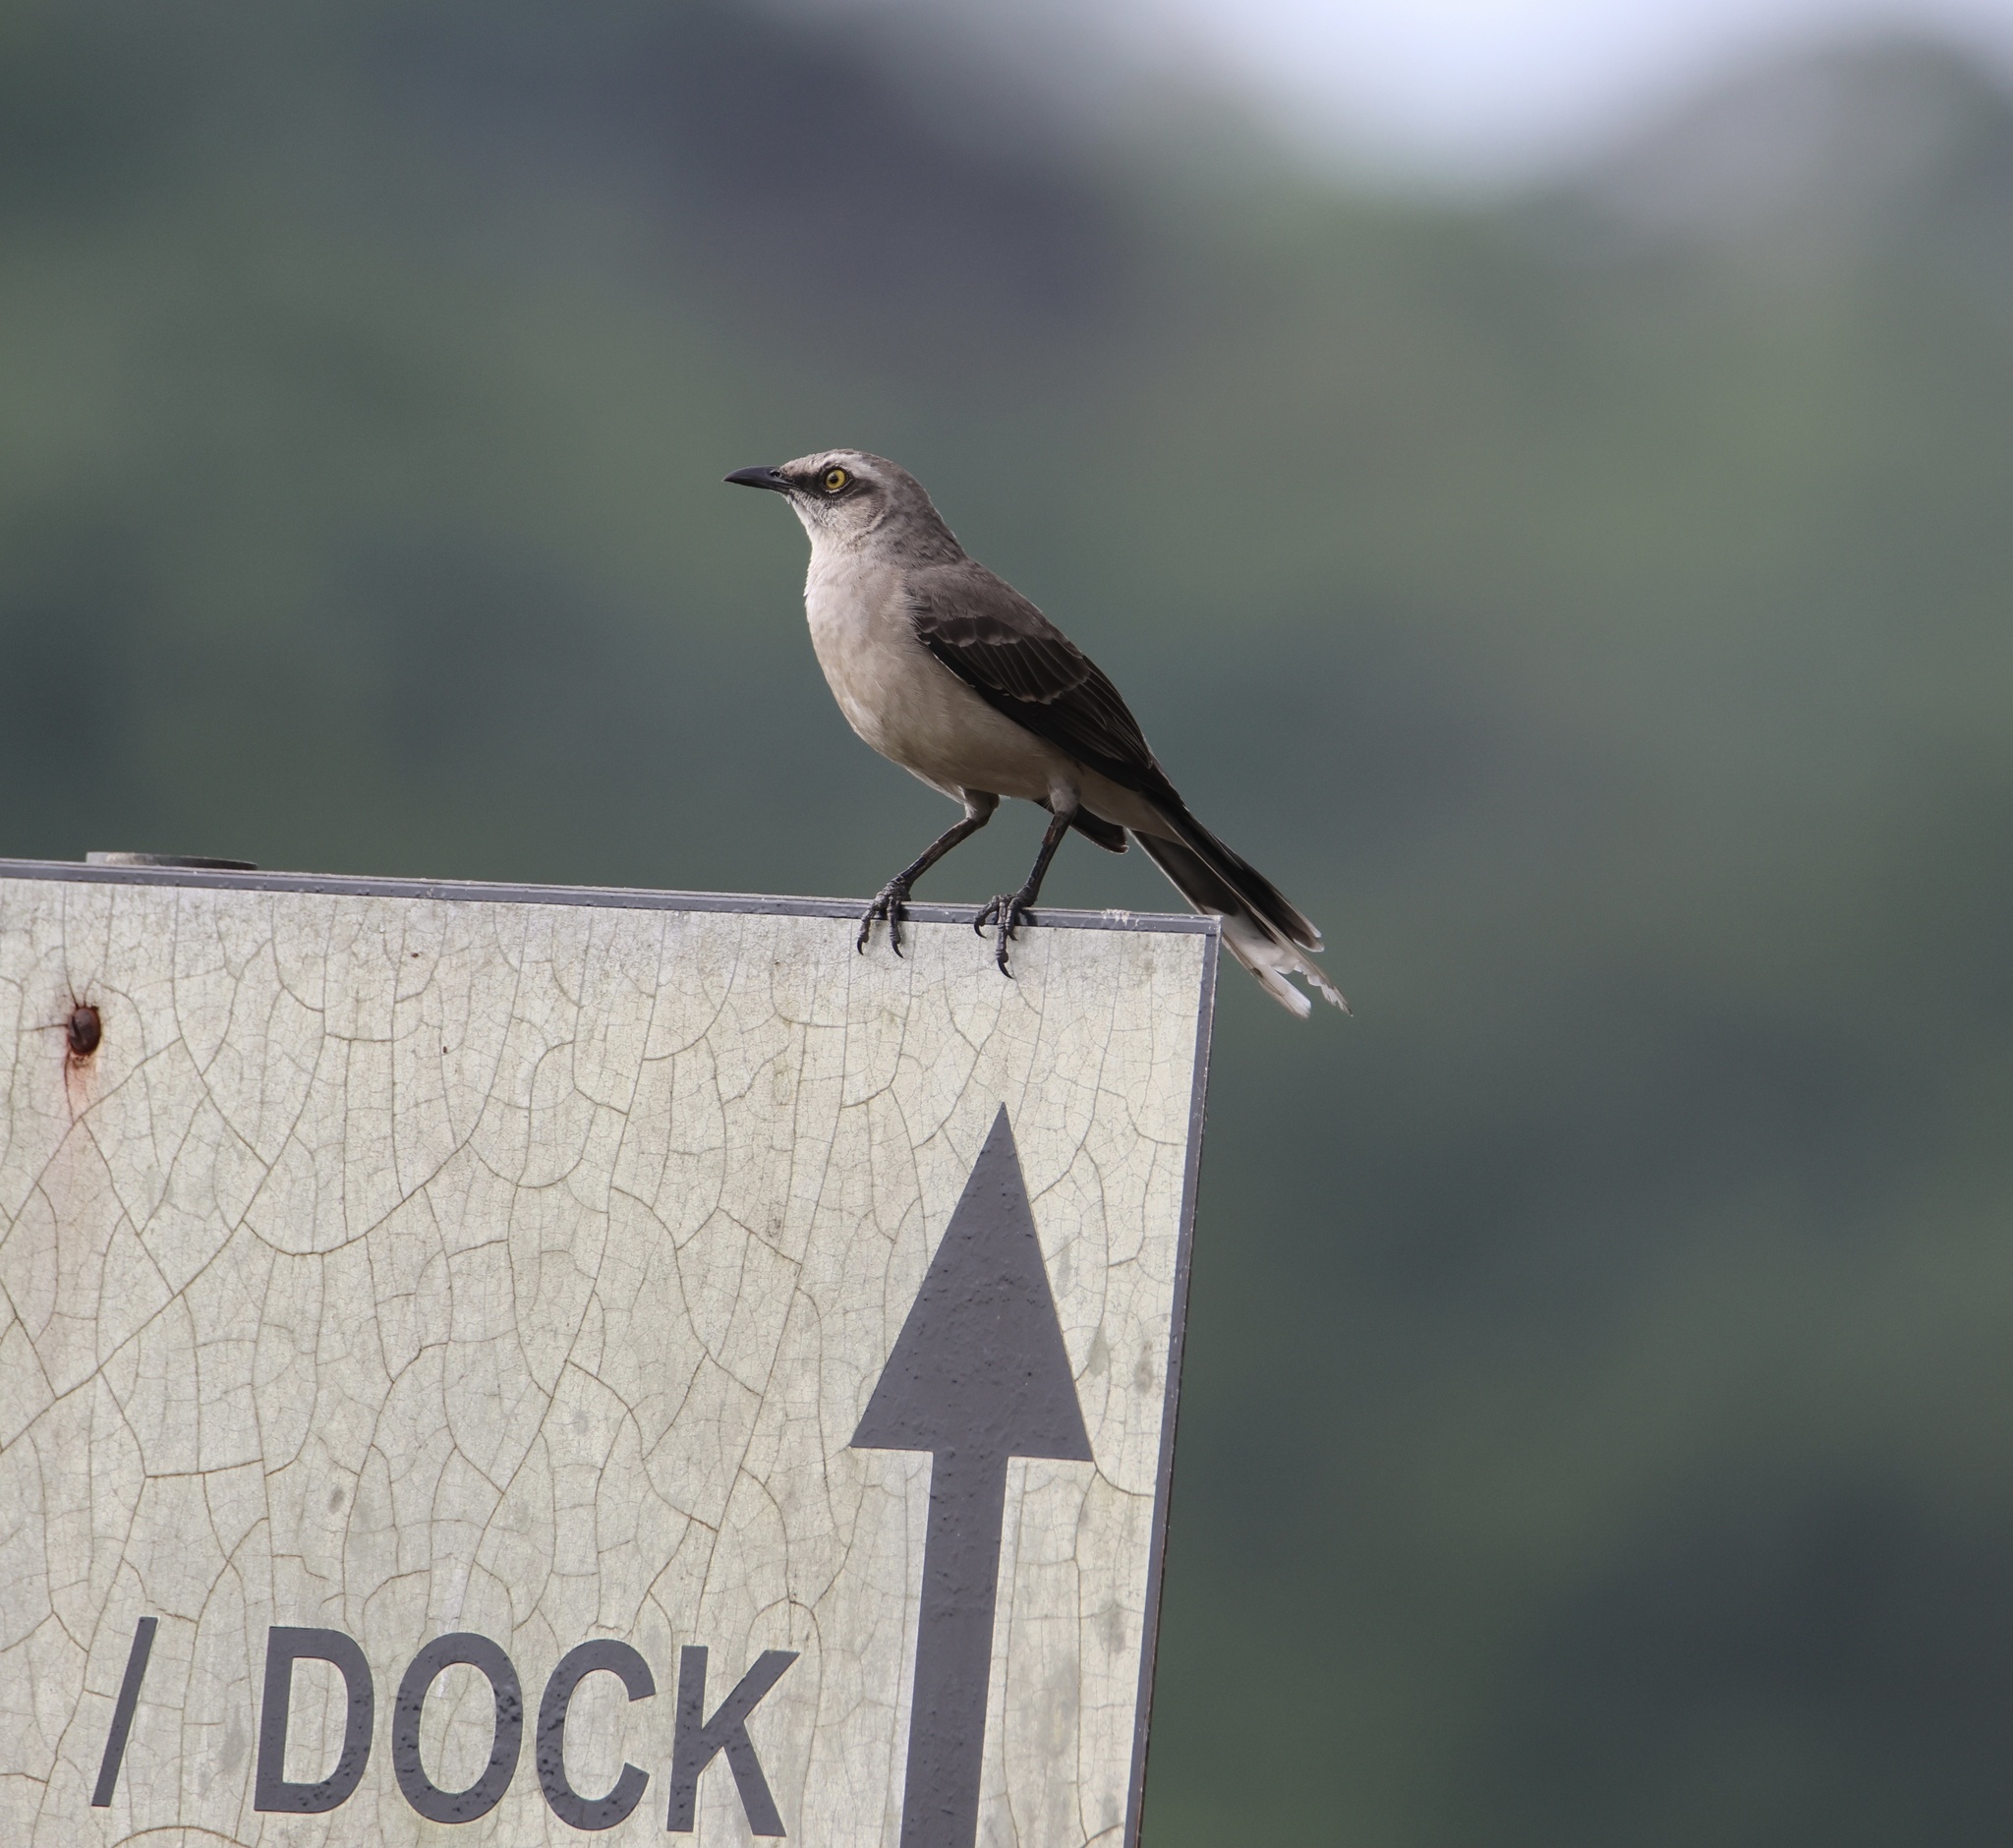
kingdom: Animalia
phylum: Chordata
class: Aves
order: Passeriformes
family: Mimidae
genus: Mimus
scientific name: Mimus gilvus
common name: Tropical mockingbird
